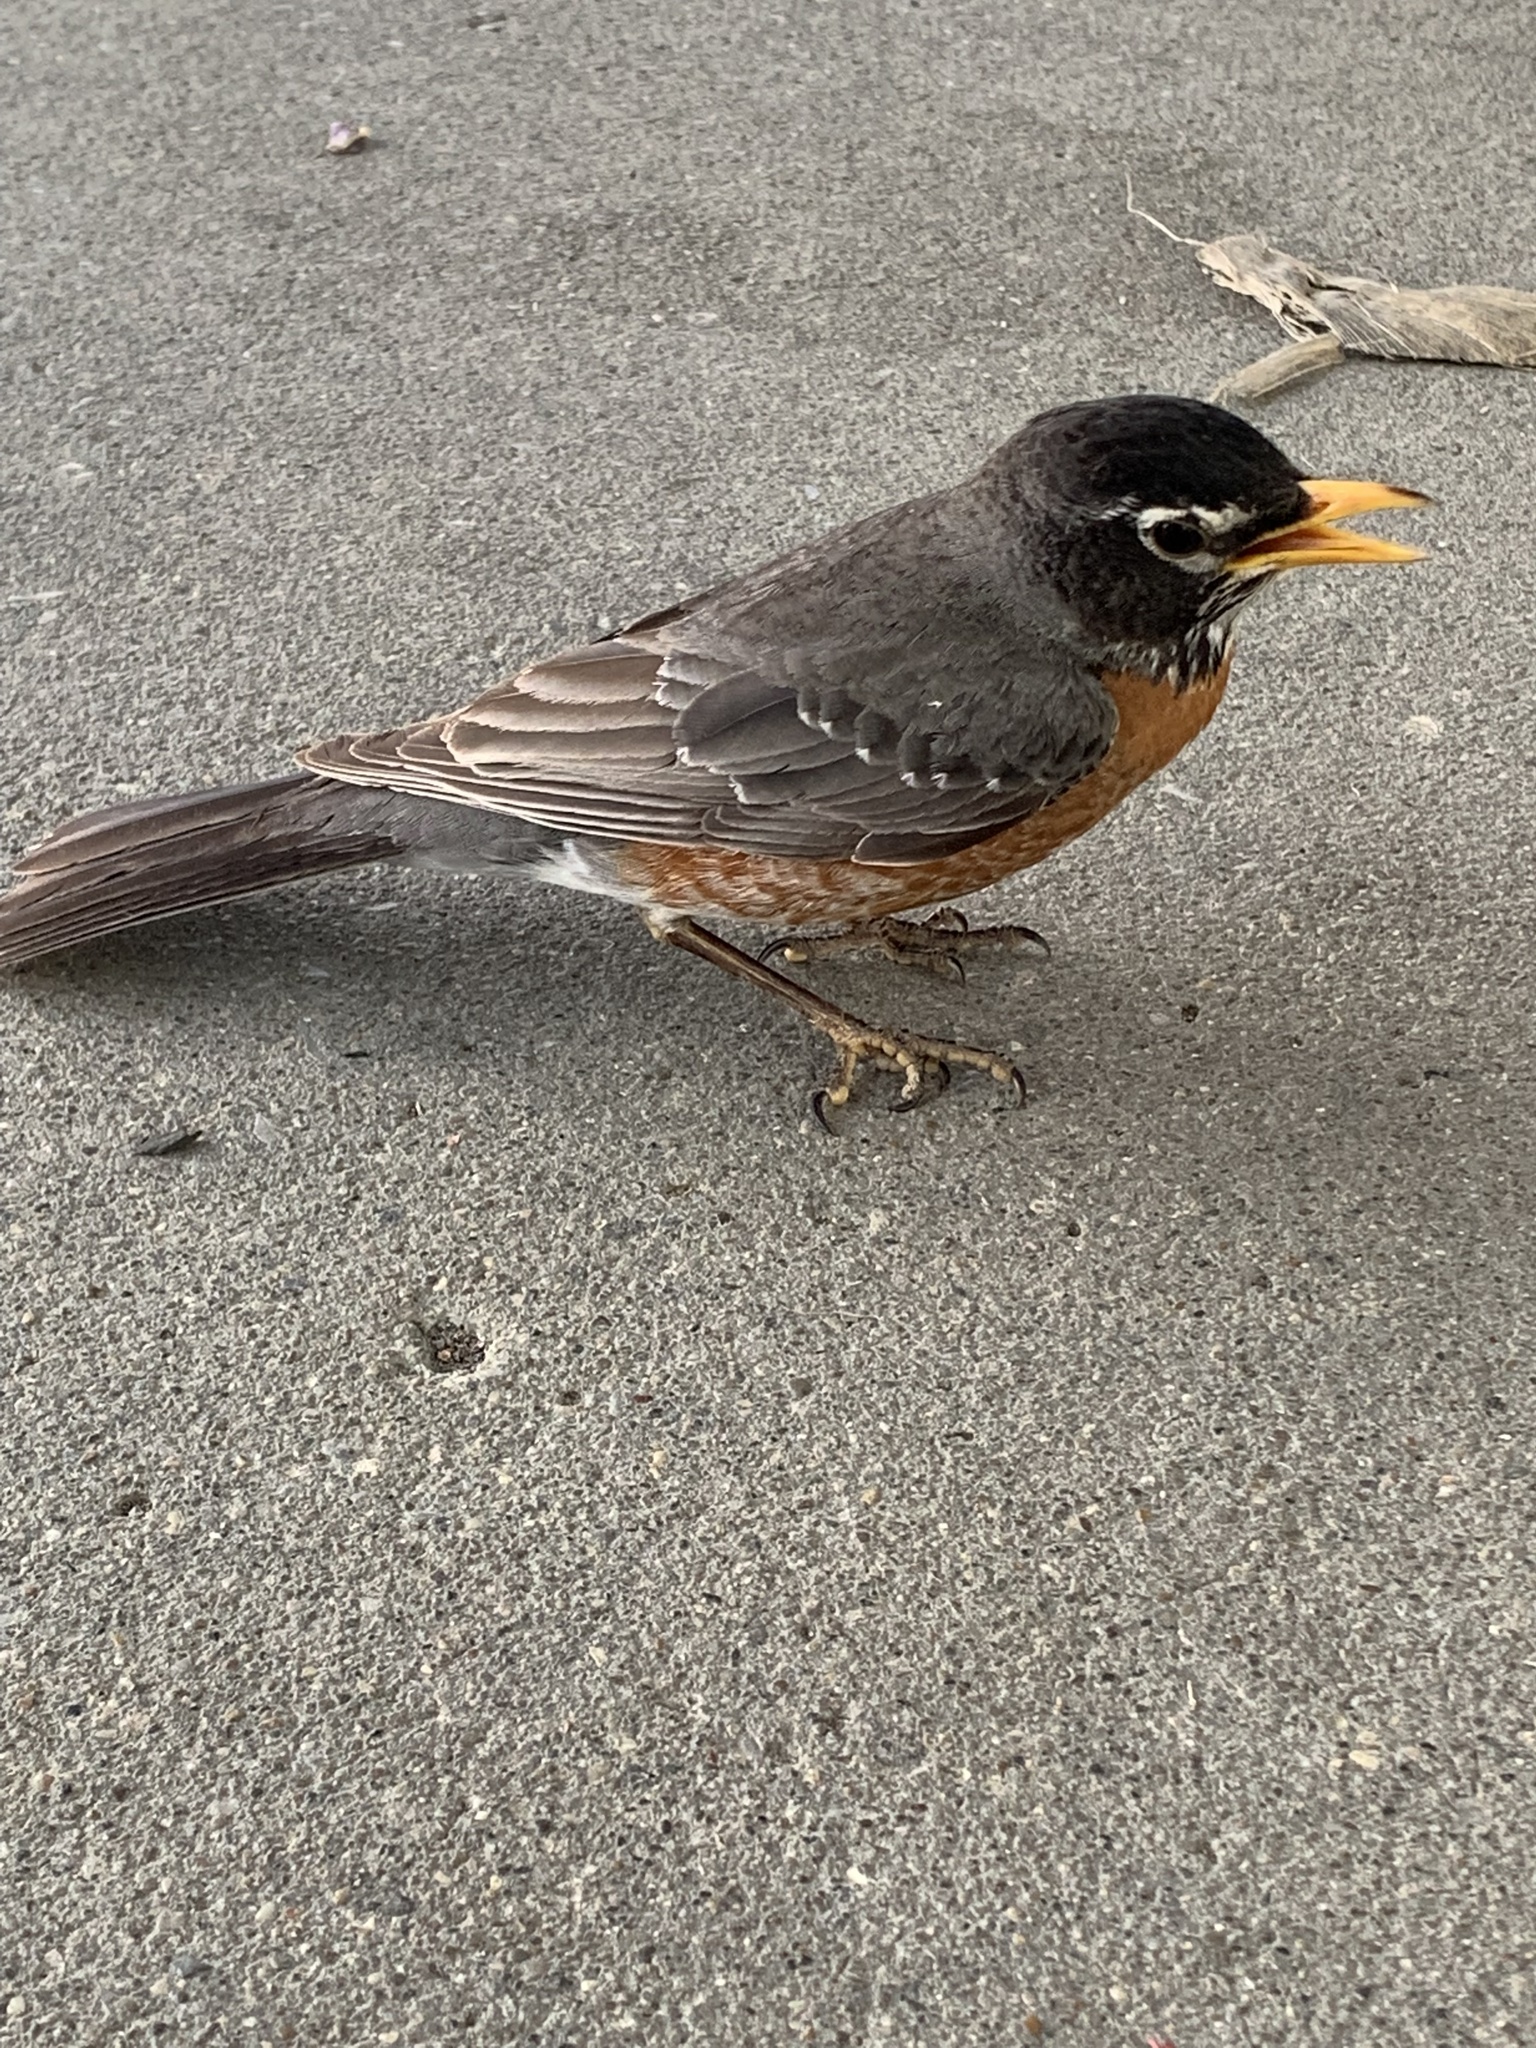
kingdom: Animalia
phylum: Chordata
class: Aves
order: Passeriformes
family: Turdidae
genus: Turdus
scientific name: Turdus migratorius
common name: American robin
